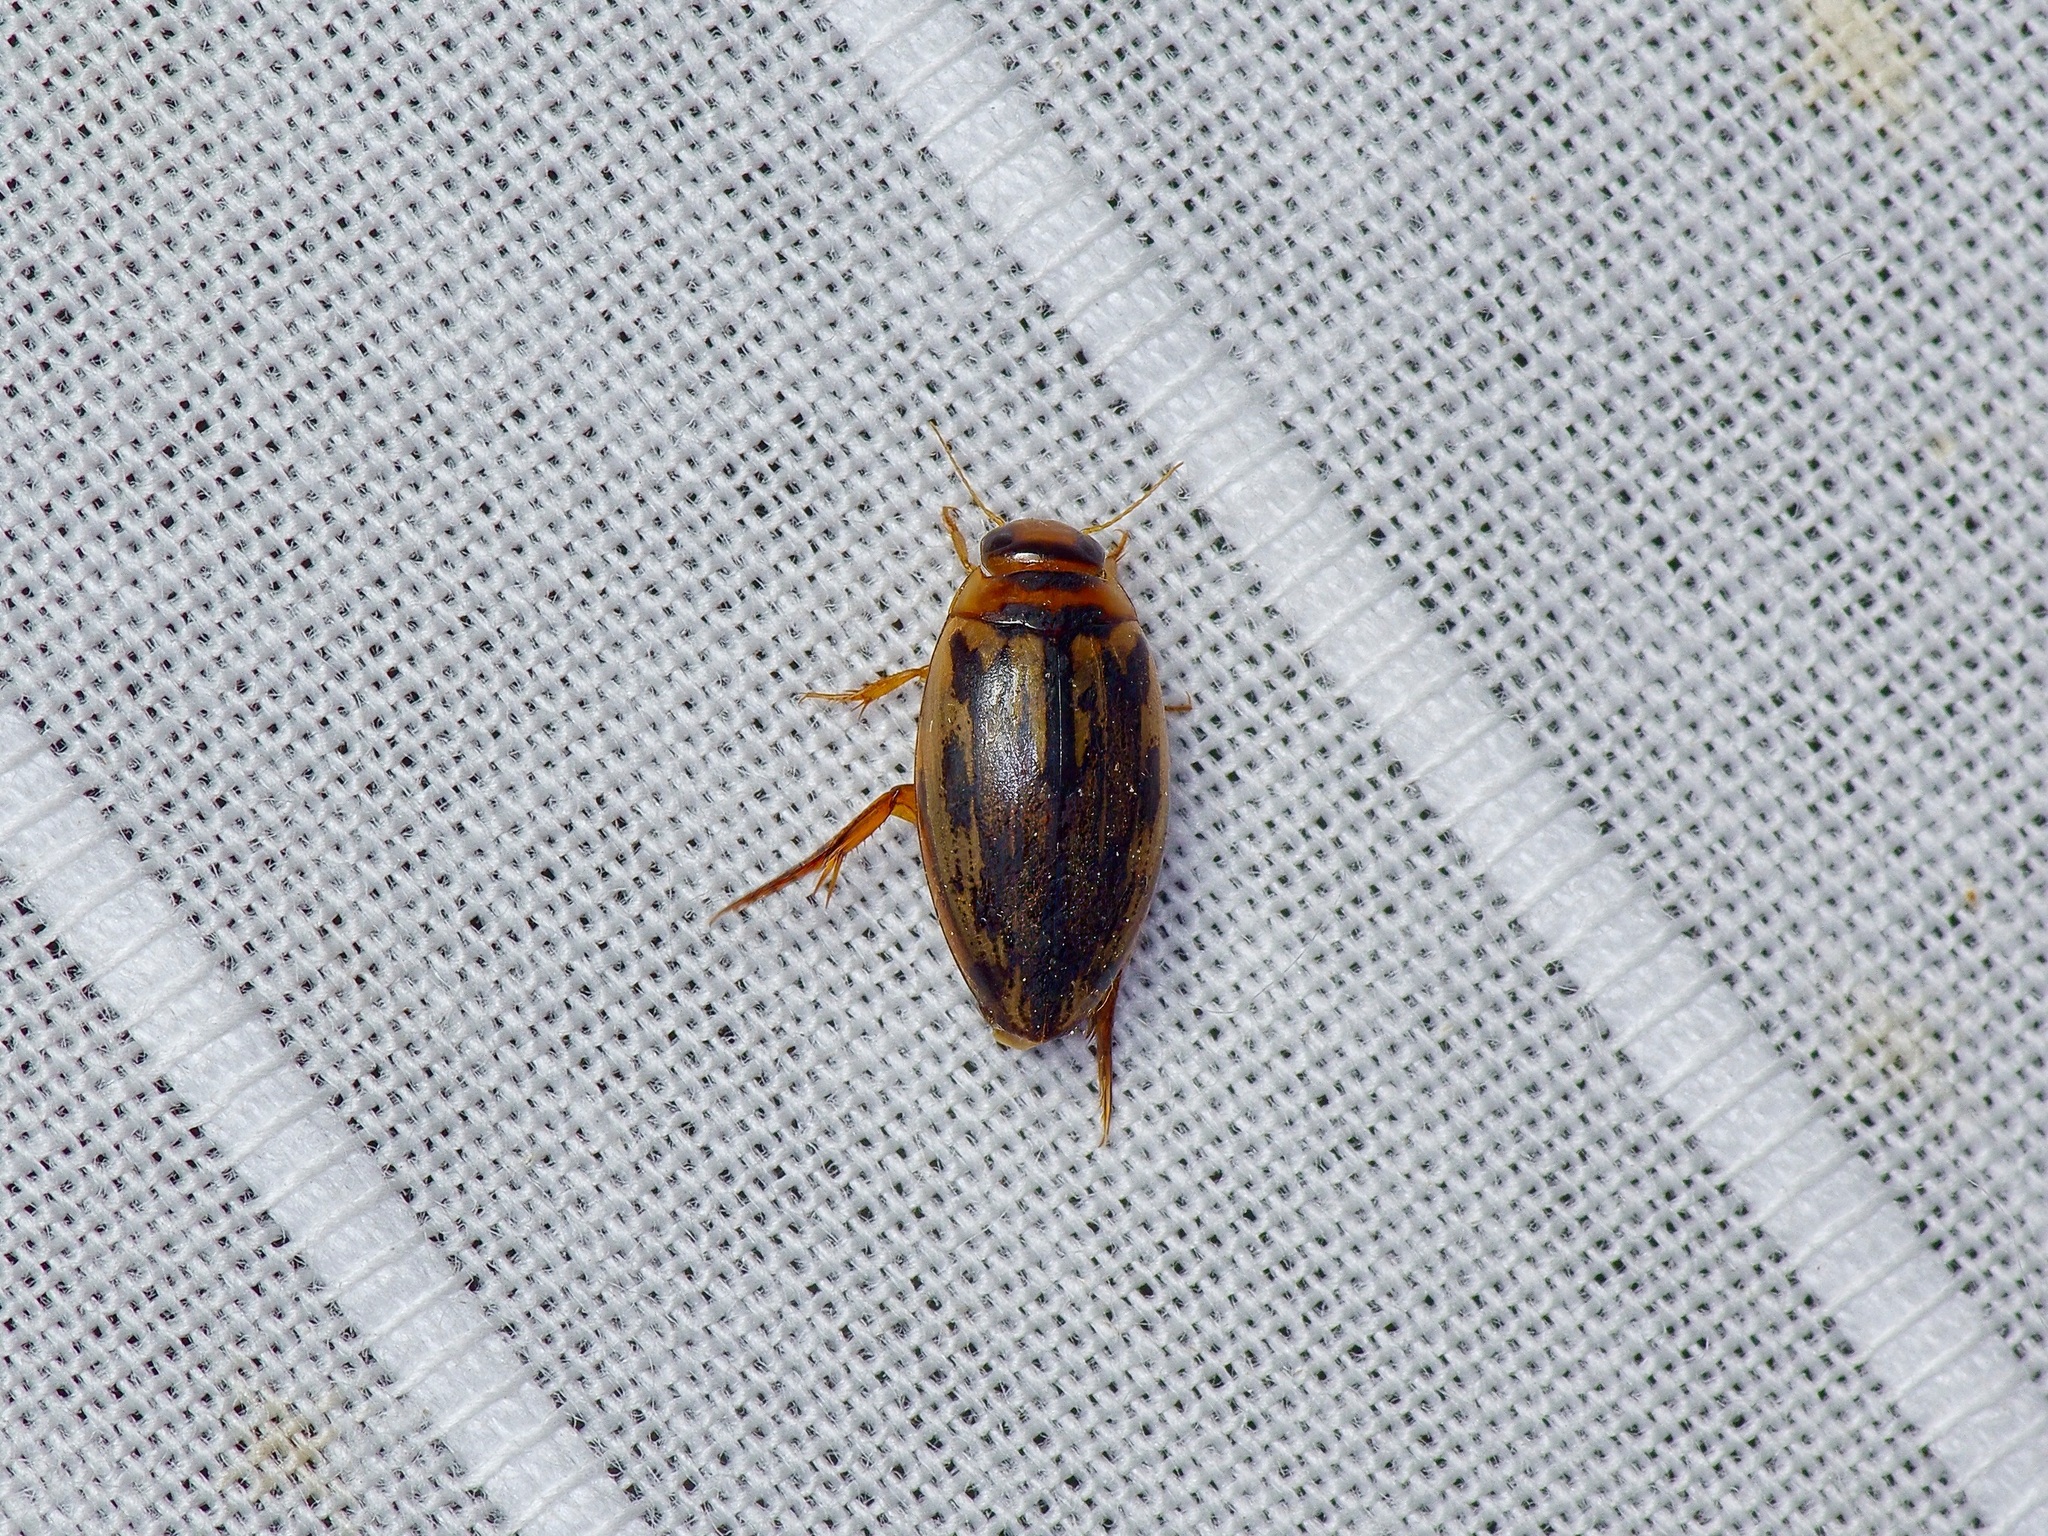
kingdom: Animalia
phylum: Arthropoda
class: Insecta
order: Coleoptera
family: Dytiscidae
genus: Coptotomus
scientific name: Coptotomus
